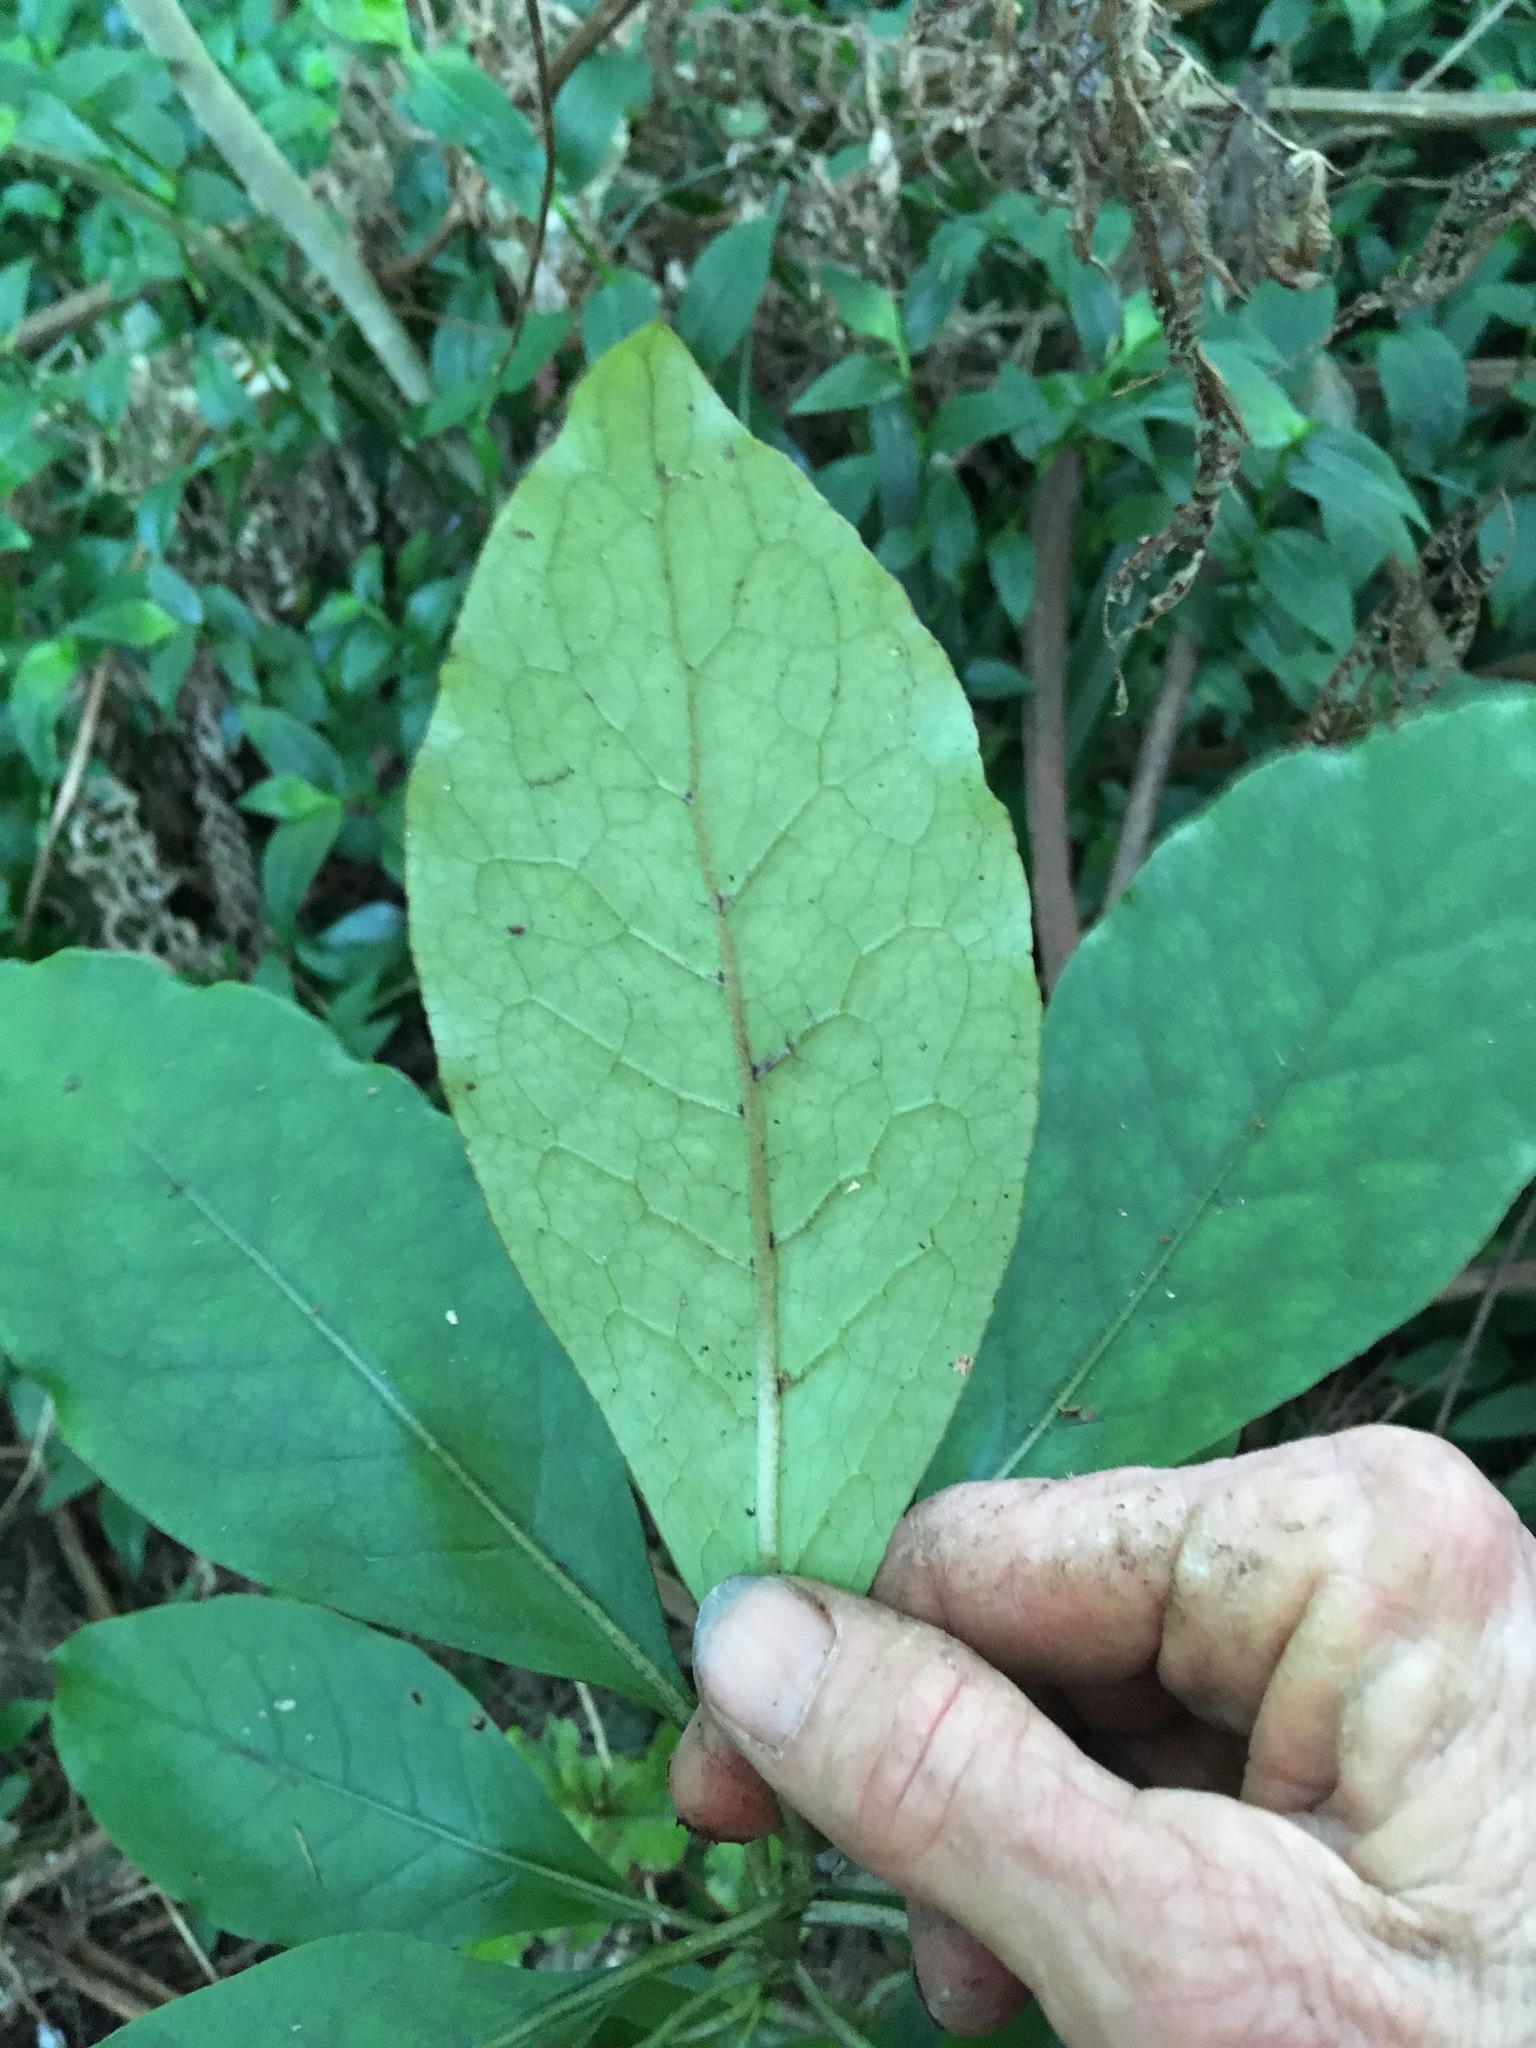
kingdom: Plantae
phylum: Tracheophyta
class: Magnoliopsida
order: Gentianales
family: Rubiaceae
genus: Coprosma
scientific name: Coprosma autumnalis
